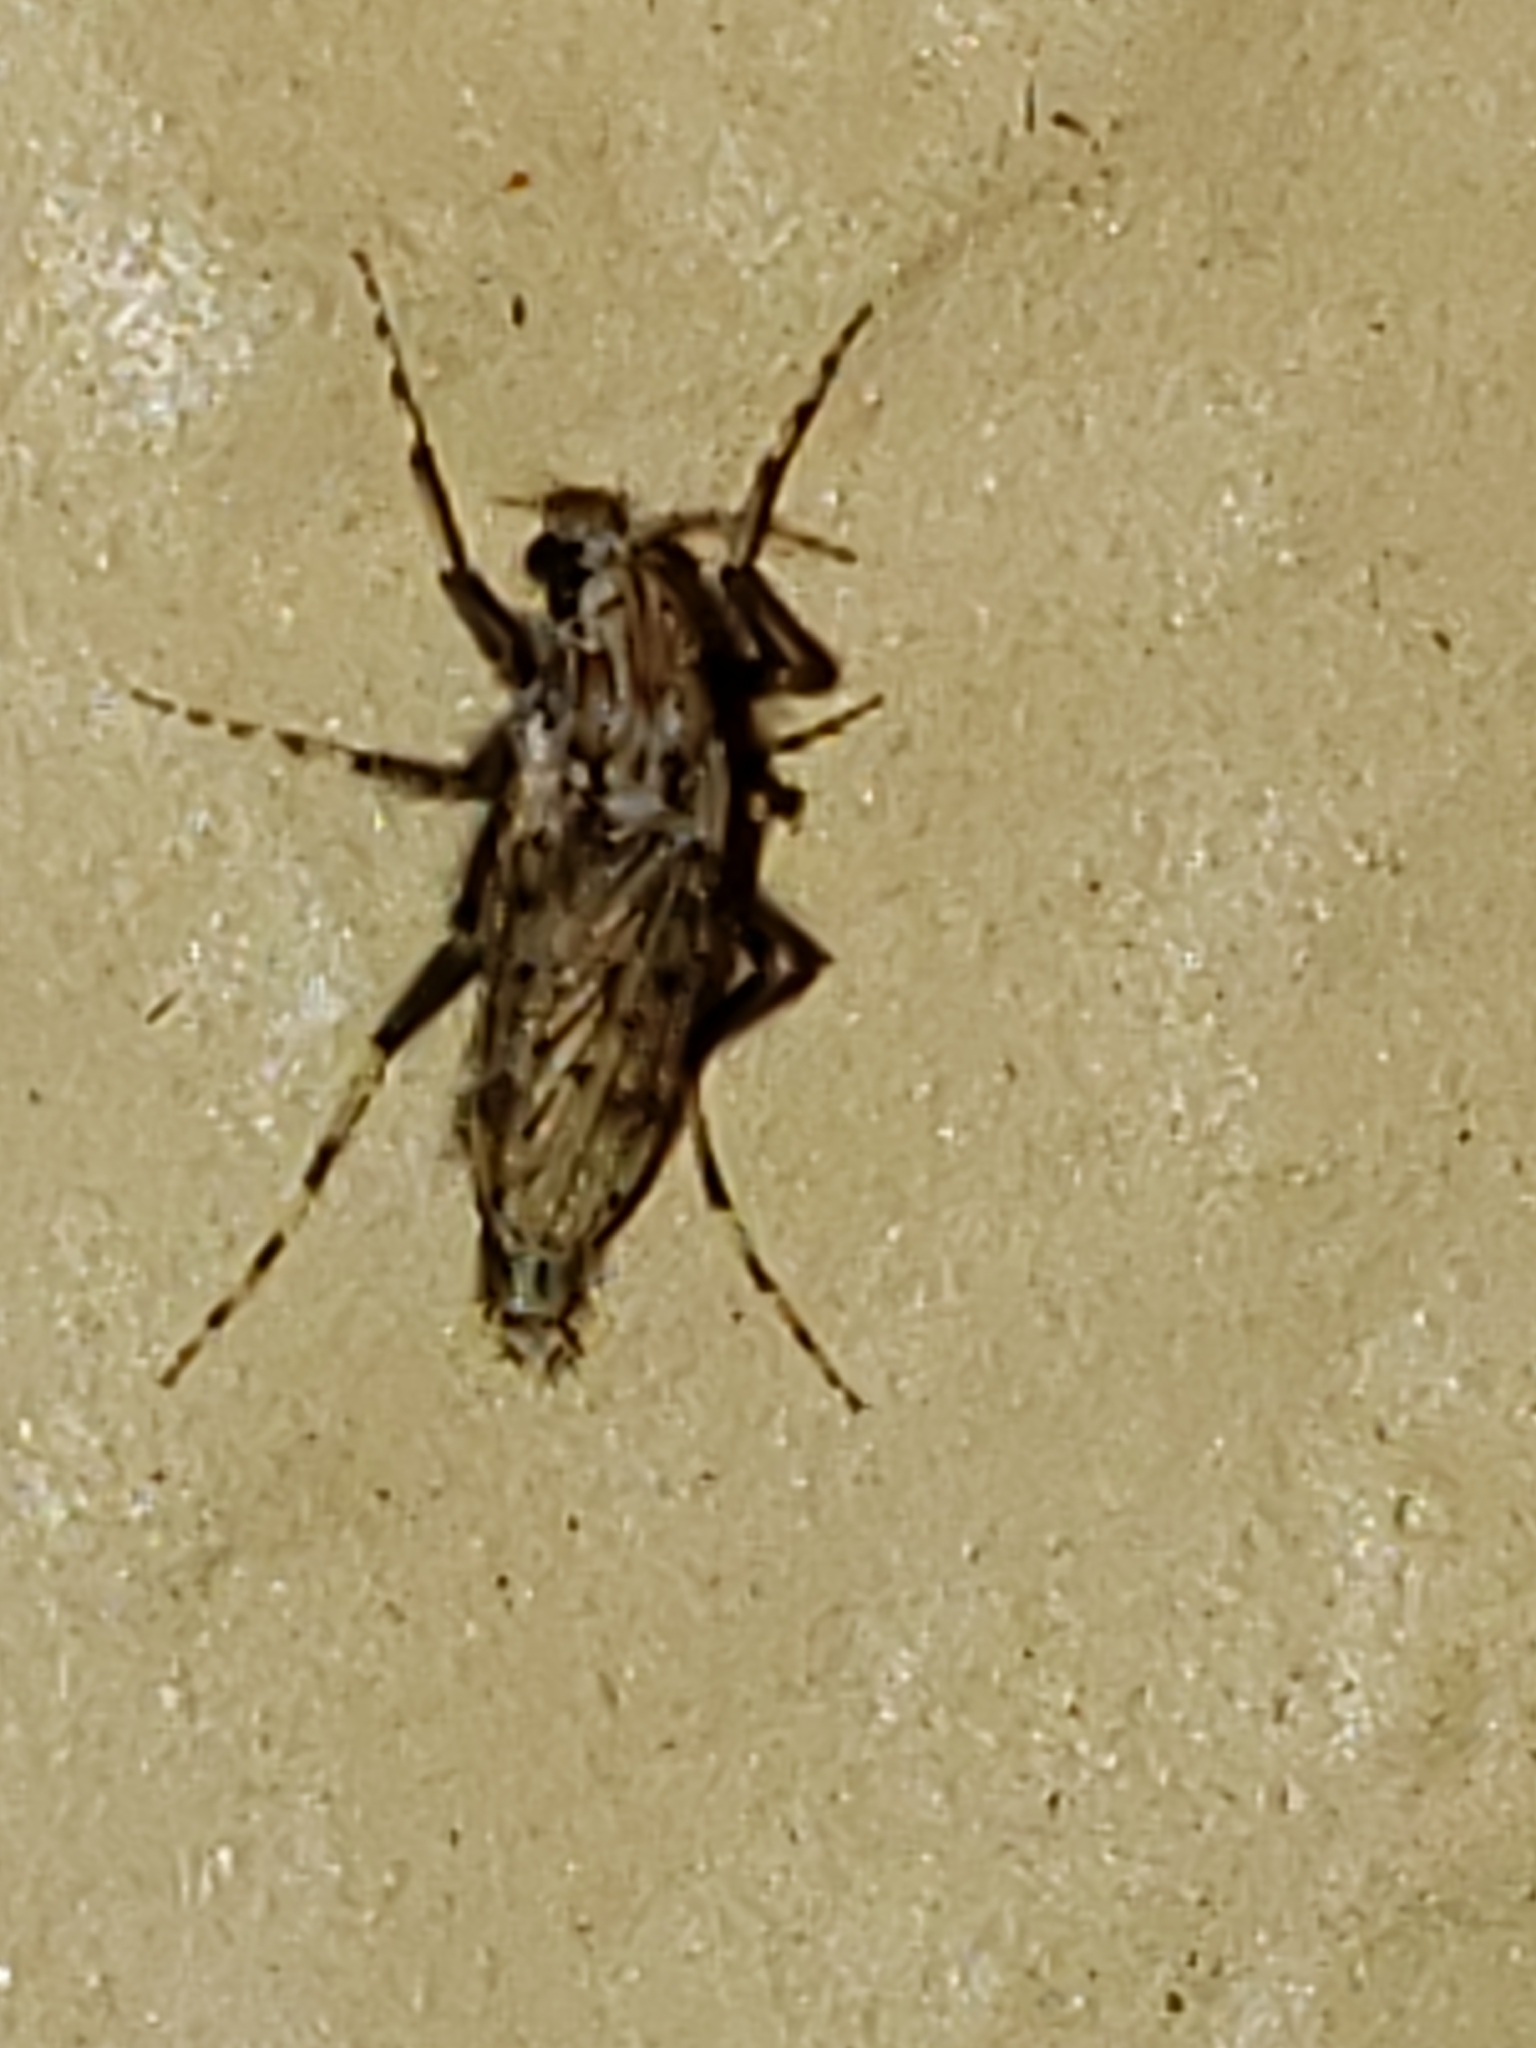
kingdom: Animalia
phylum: Arthropoda
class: Insecta
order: Diptera
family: Chaoboridae
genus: Chaoborus
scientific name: Chaoborus punctipennis
